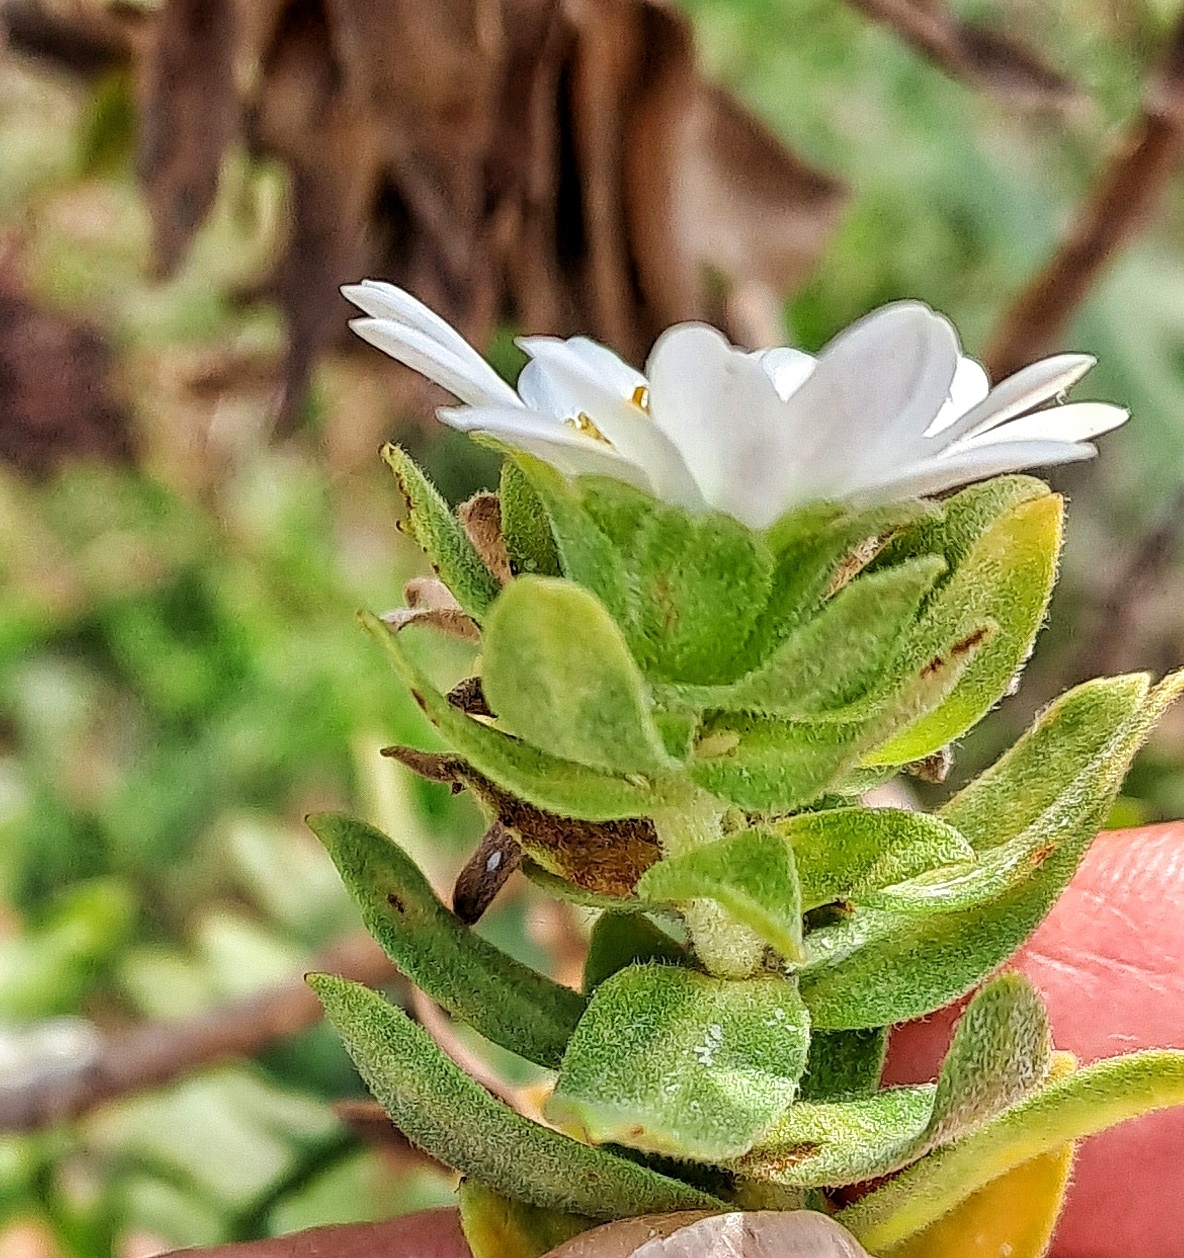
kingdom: Plantae
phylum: Tracheophyta
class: Magnoliopsida
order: Asterales
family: Asteraceae
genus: Osmitopsis
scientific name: Osmitopsis asteriscoides
